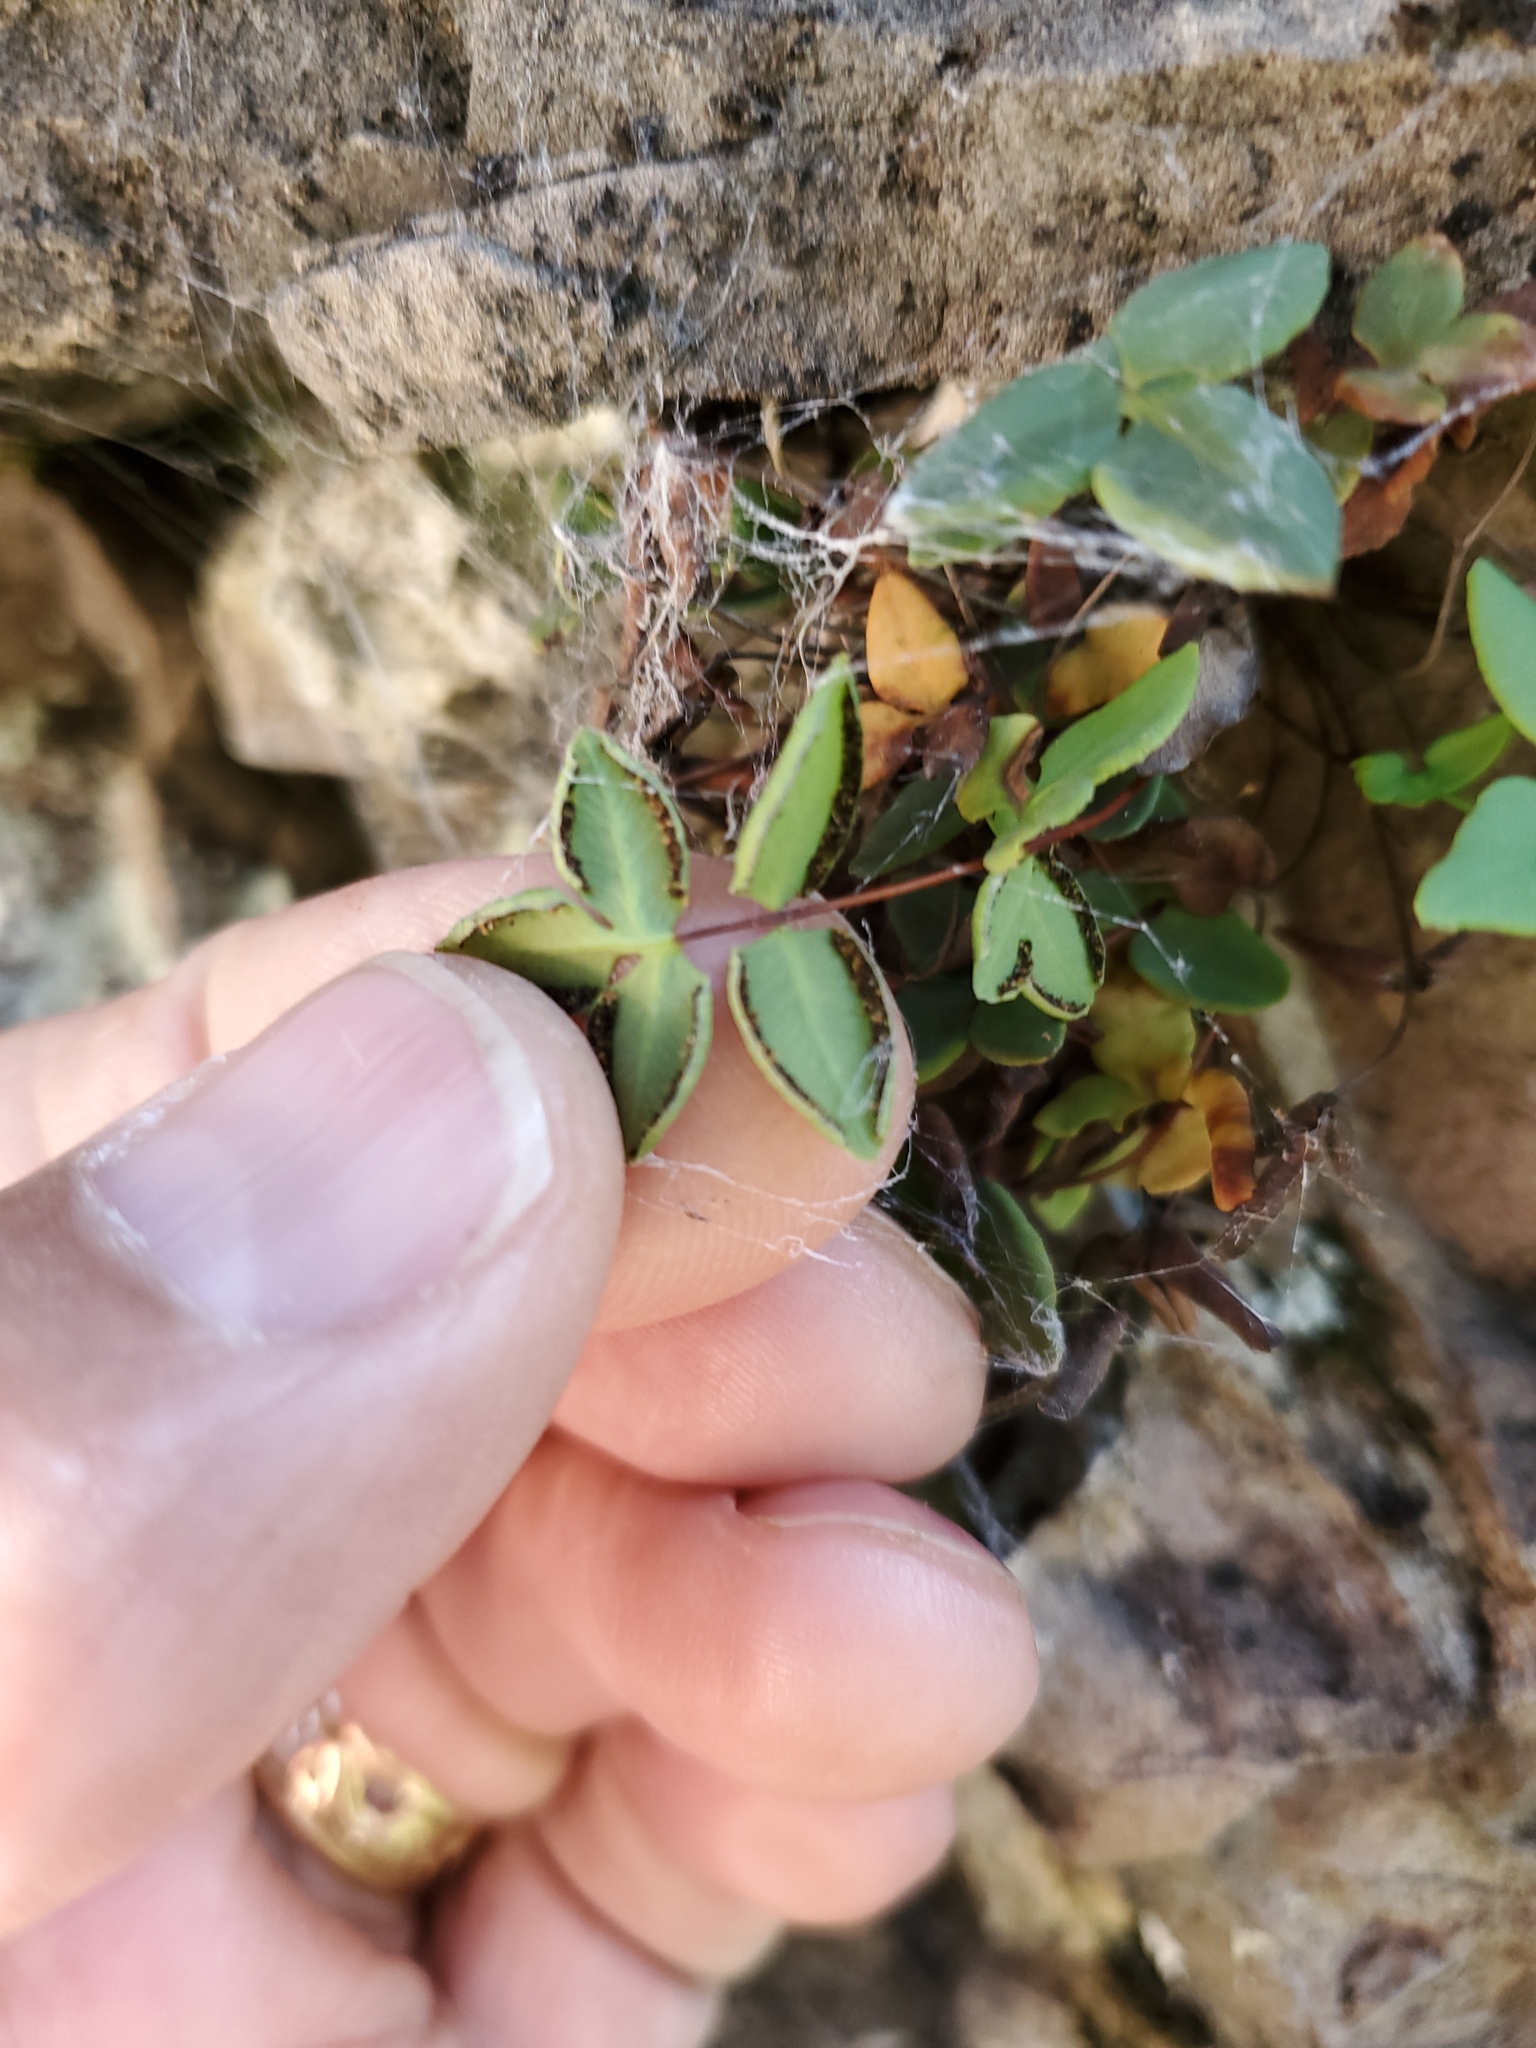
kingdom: Plantae
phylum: Tracheophyta
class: Polypodiopsida
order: Polypodiales
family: Pteridaceae
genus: Pellaea
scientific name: Pellaea glabella
